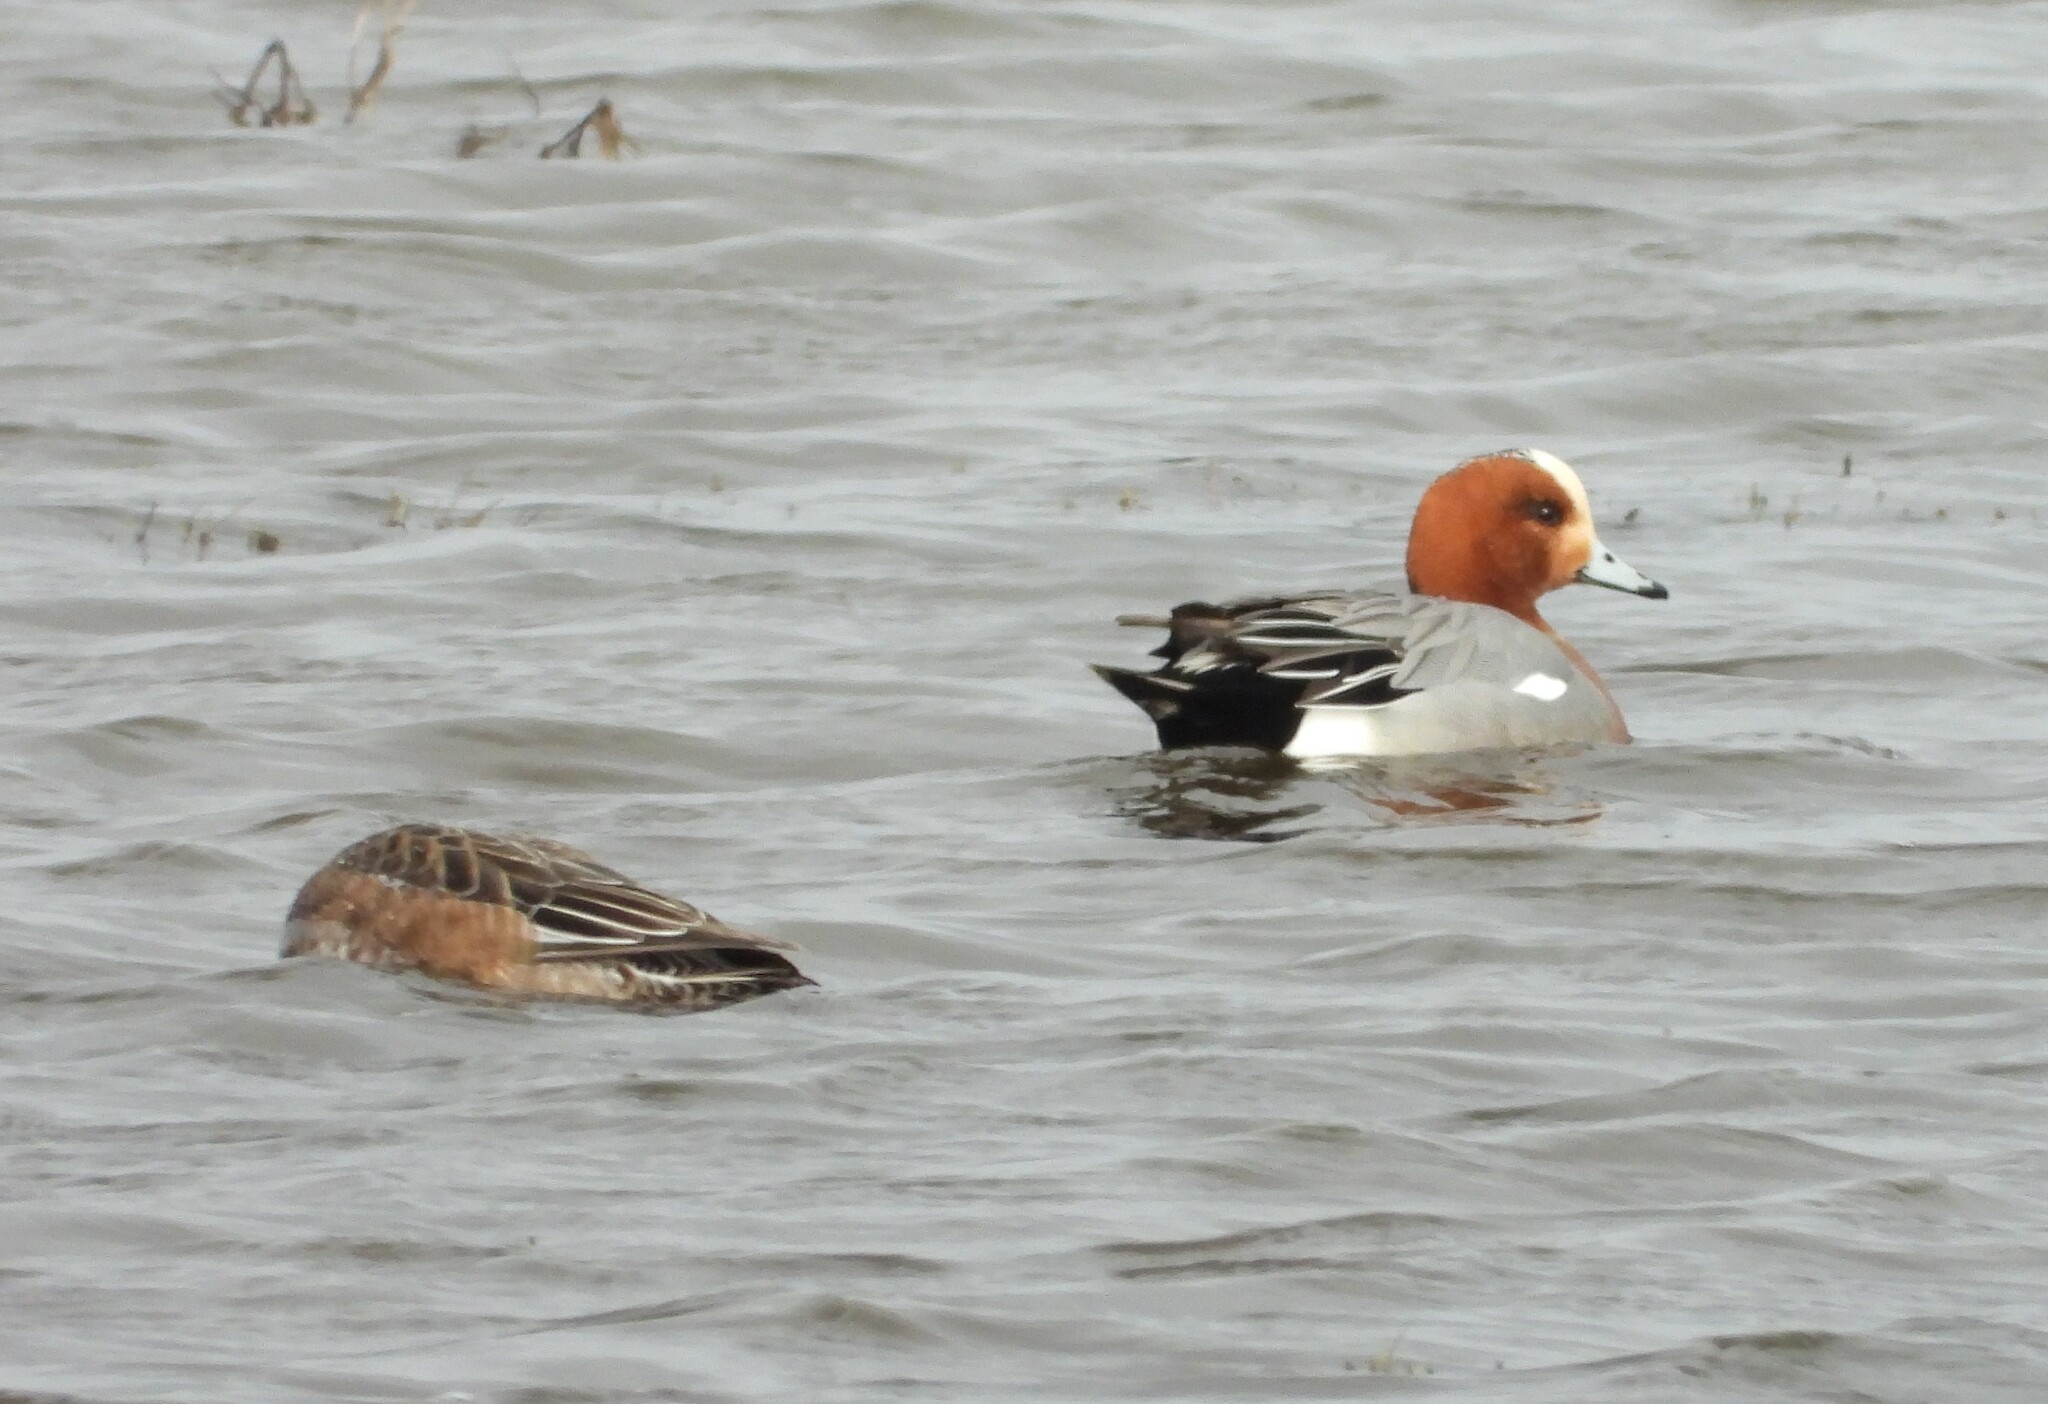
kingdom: Animalia
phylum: Chordata
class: Aves
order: Anseriformes
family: Anatidae
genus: Mareca
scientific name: Mareca penelope
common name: Eurasian wigeon
